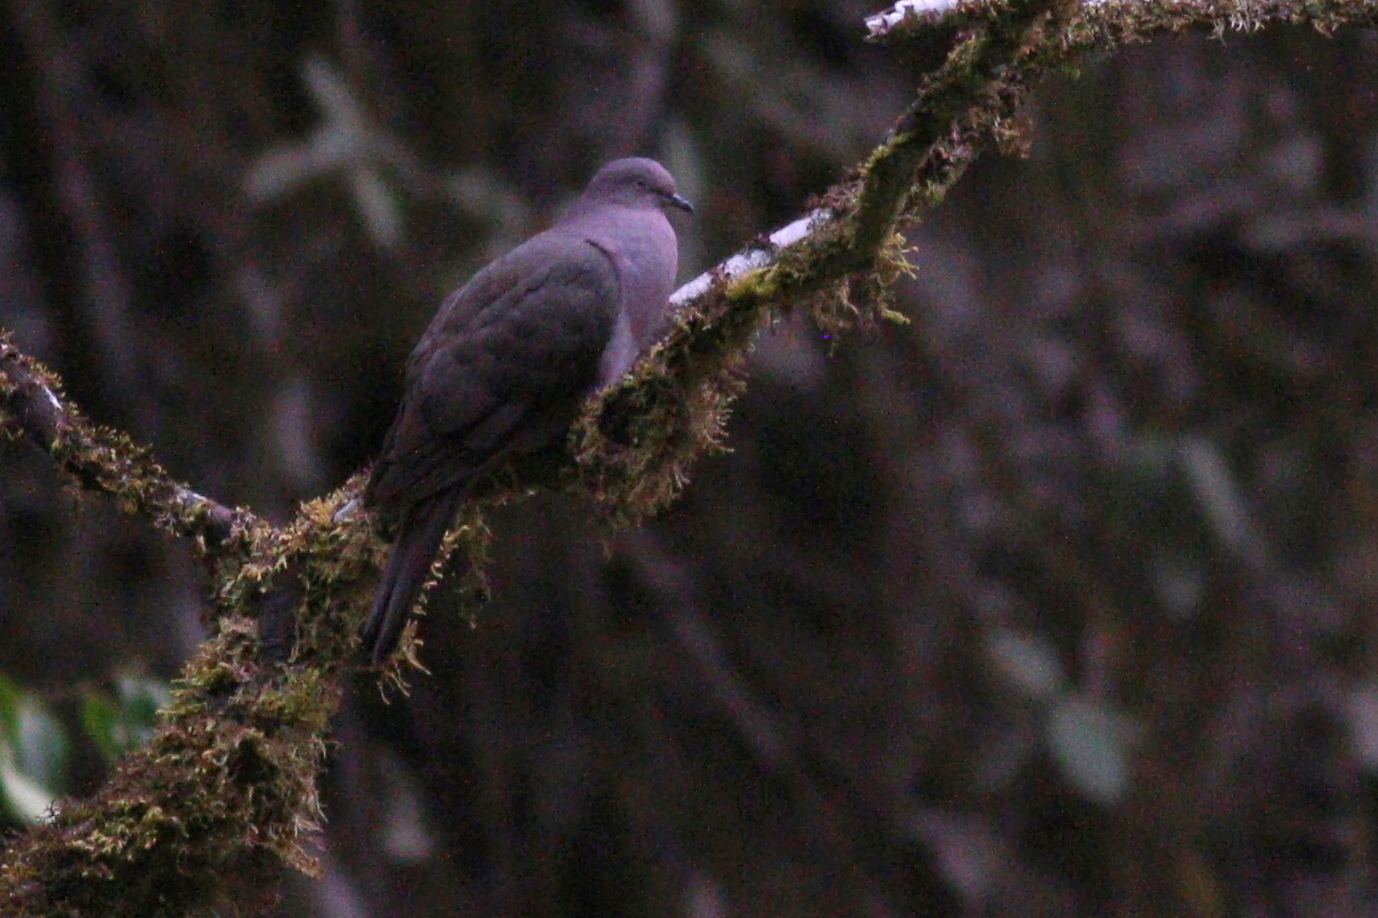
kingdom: Animalia
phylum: Chordata
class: Aves
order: Columbiformes
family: Columbidae
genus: Patagioenas
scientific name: Patagioenas plumbea
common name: Plumbeous pigeon
